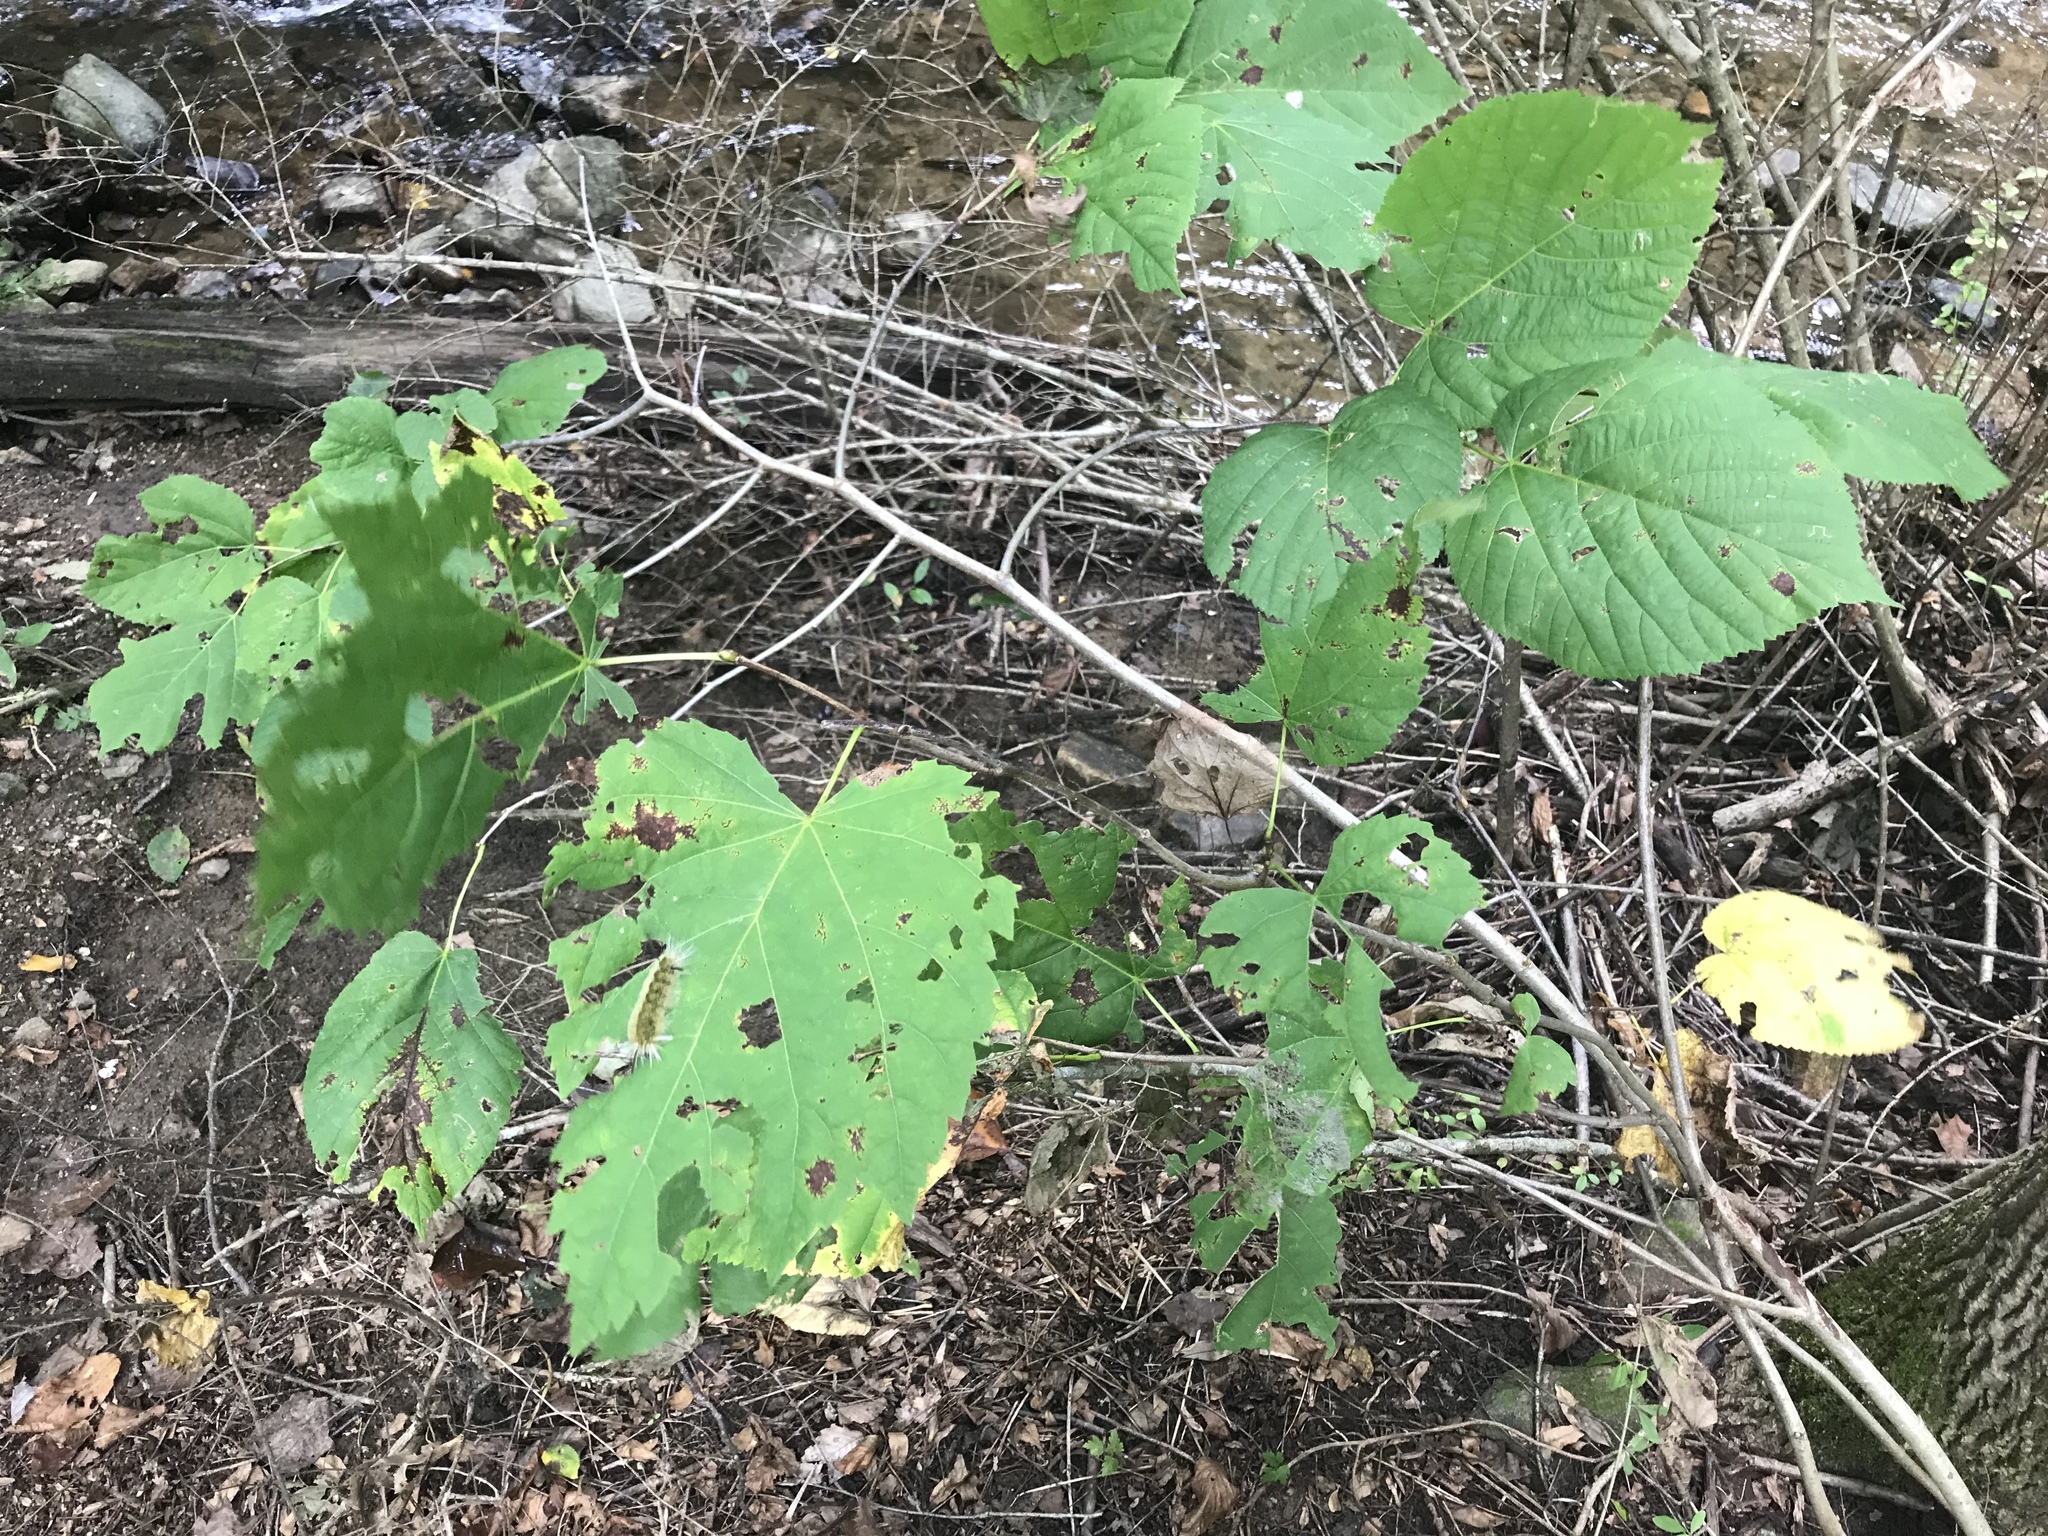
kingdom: Animalia
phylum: Arthropoda
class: Insecta
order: Lepidoptera
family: Erebidae
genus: Halysidota
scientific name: Halysidota tessellaris
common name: Banded tussock moth
